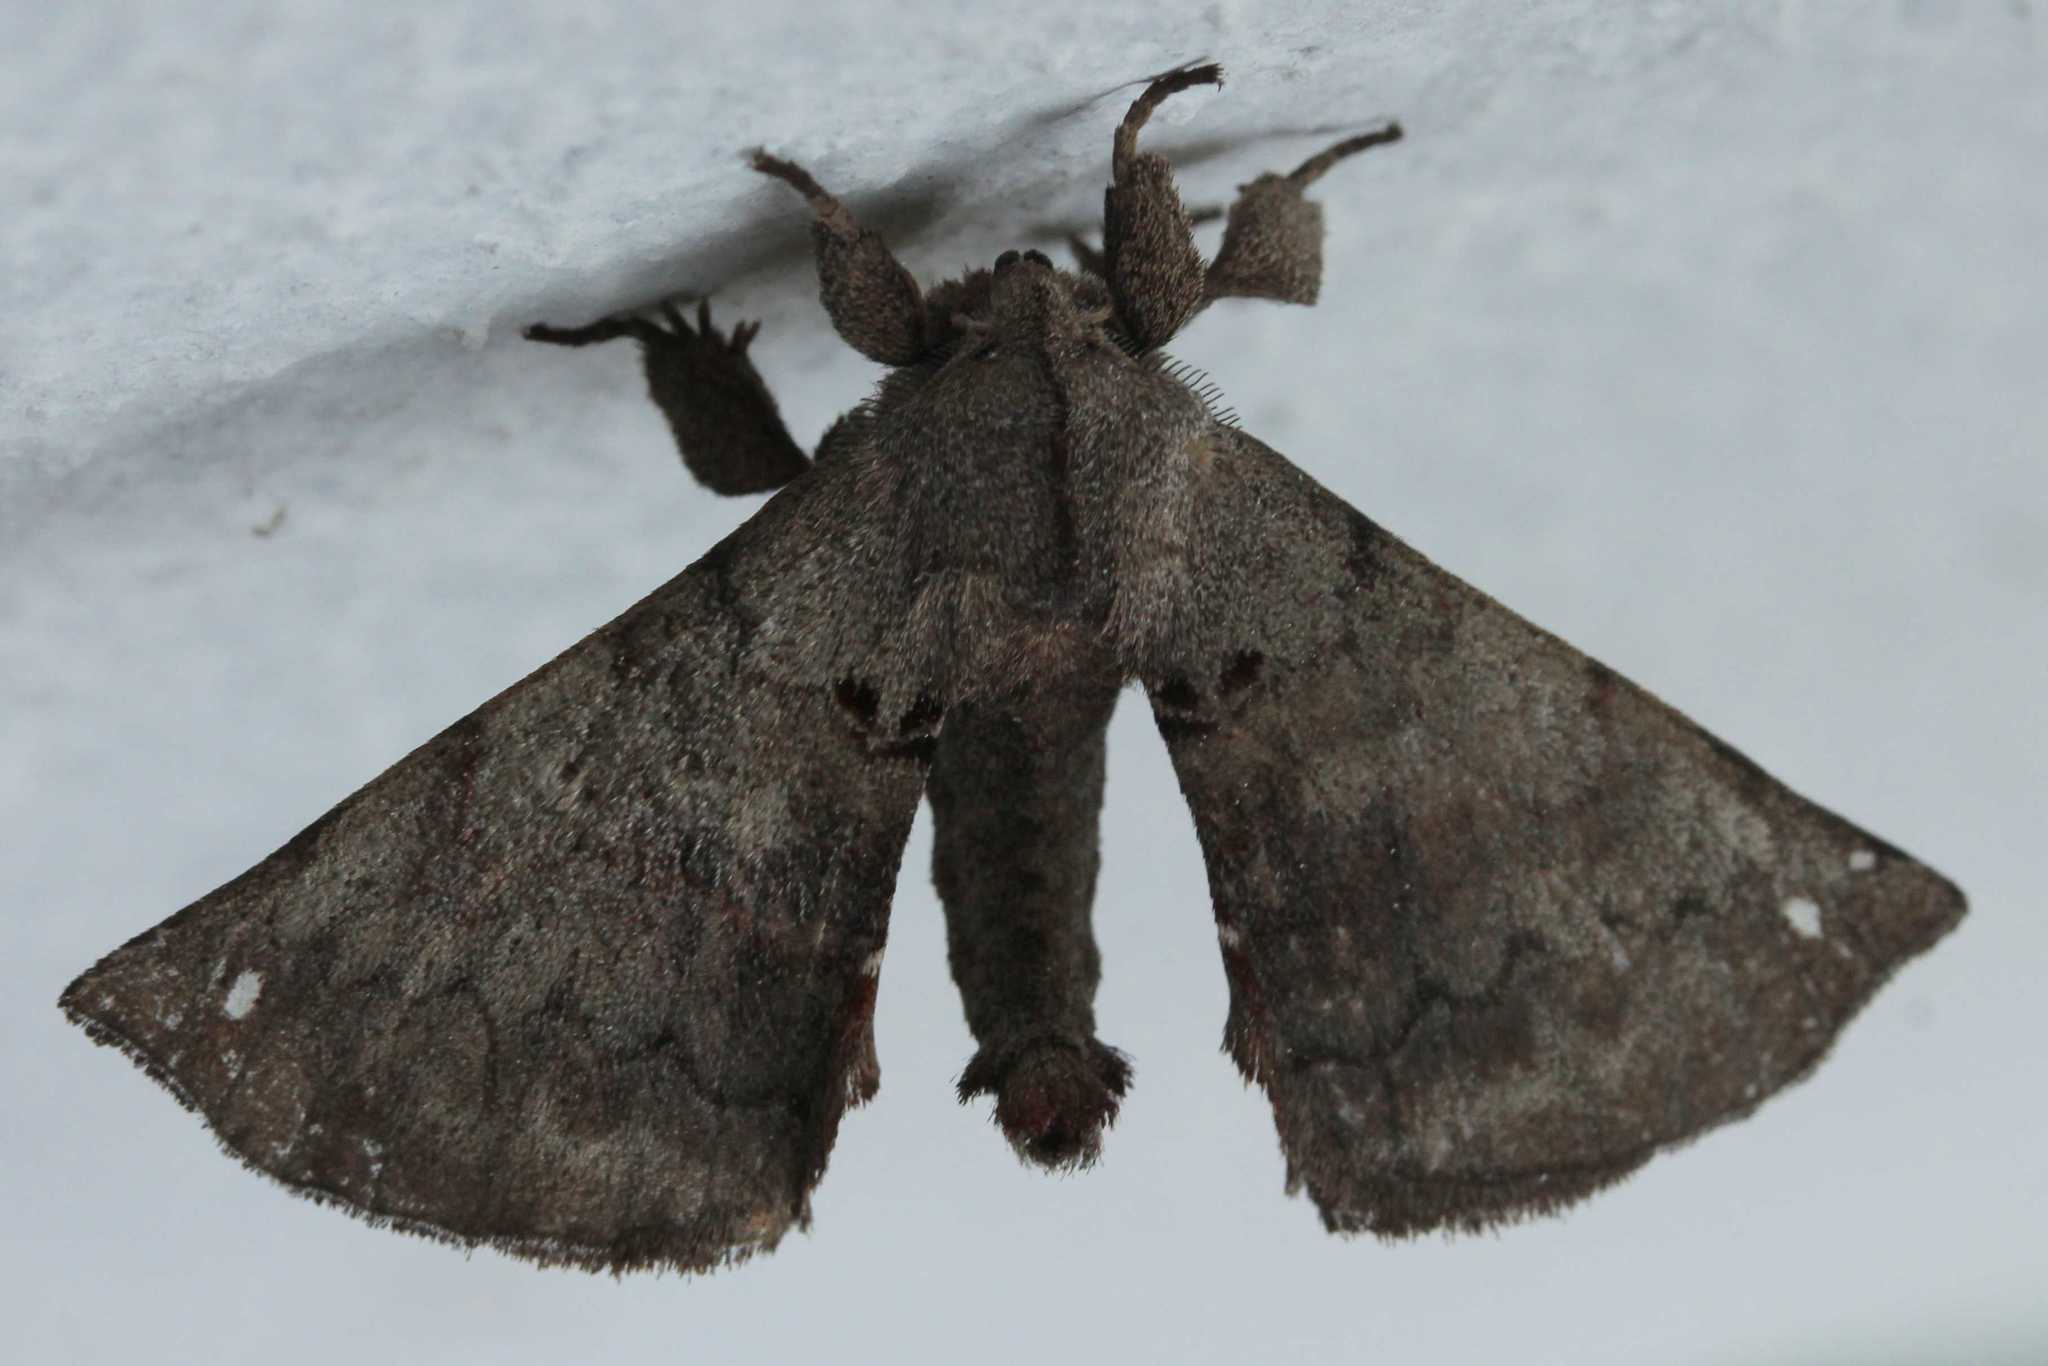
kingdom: Animalia
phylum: Arthropoda
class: Insecta
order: Lepidoptera
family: Apatelodidae
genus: Hygrochroa
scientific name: Hygrochroa
